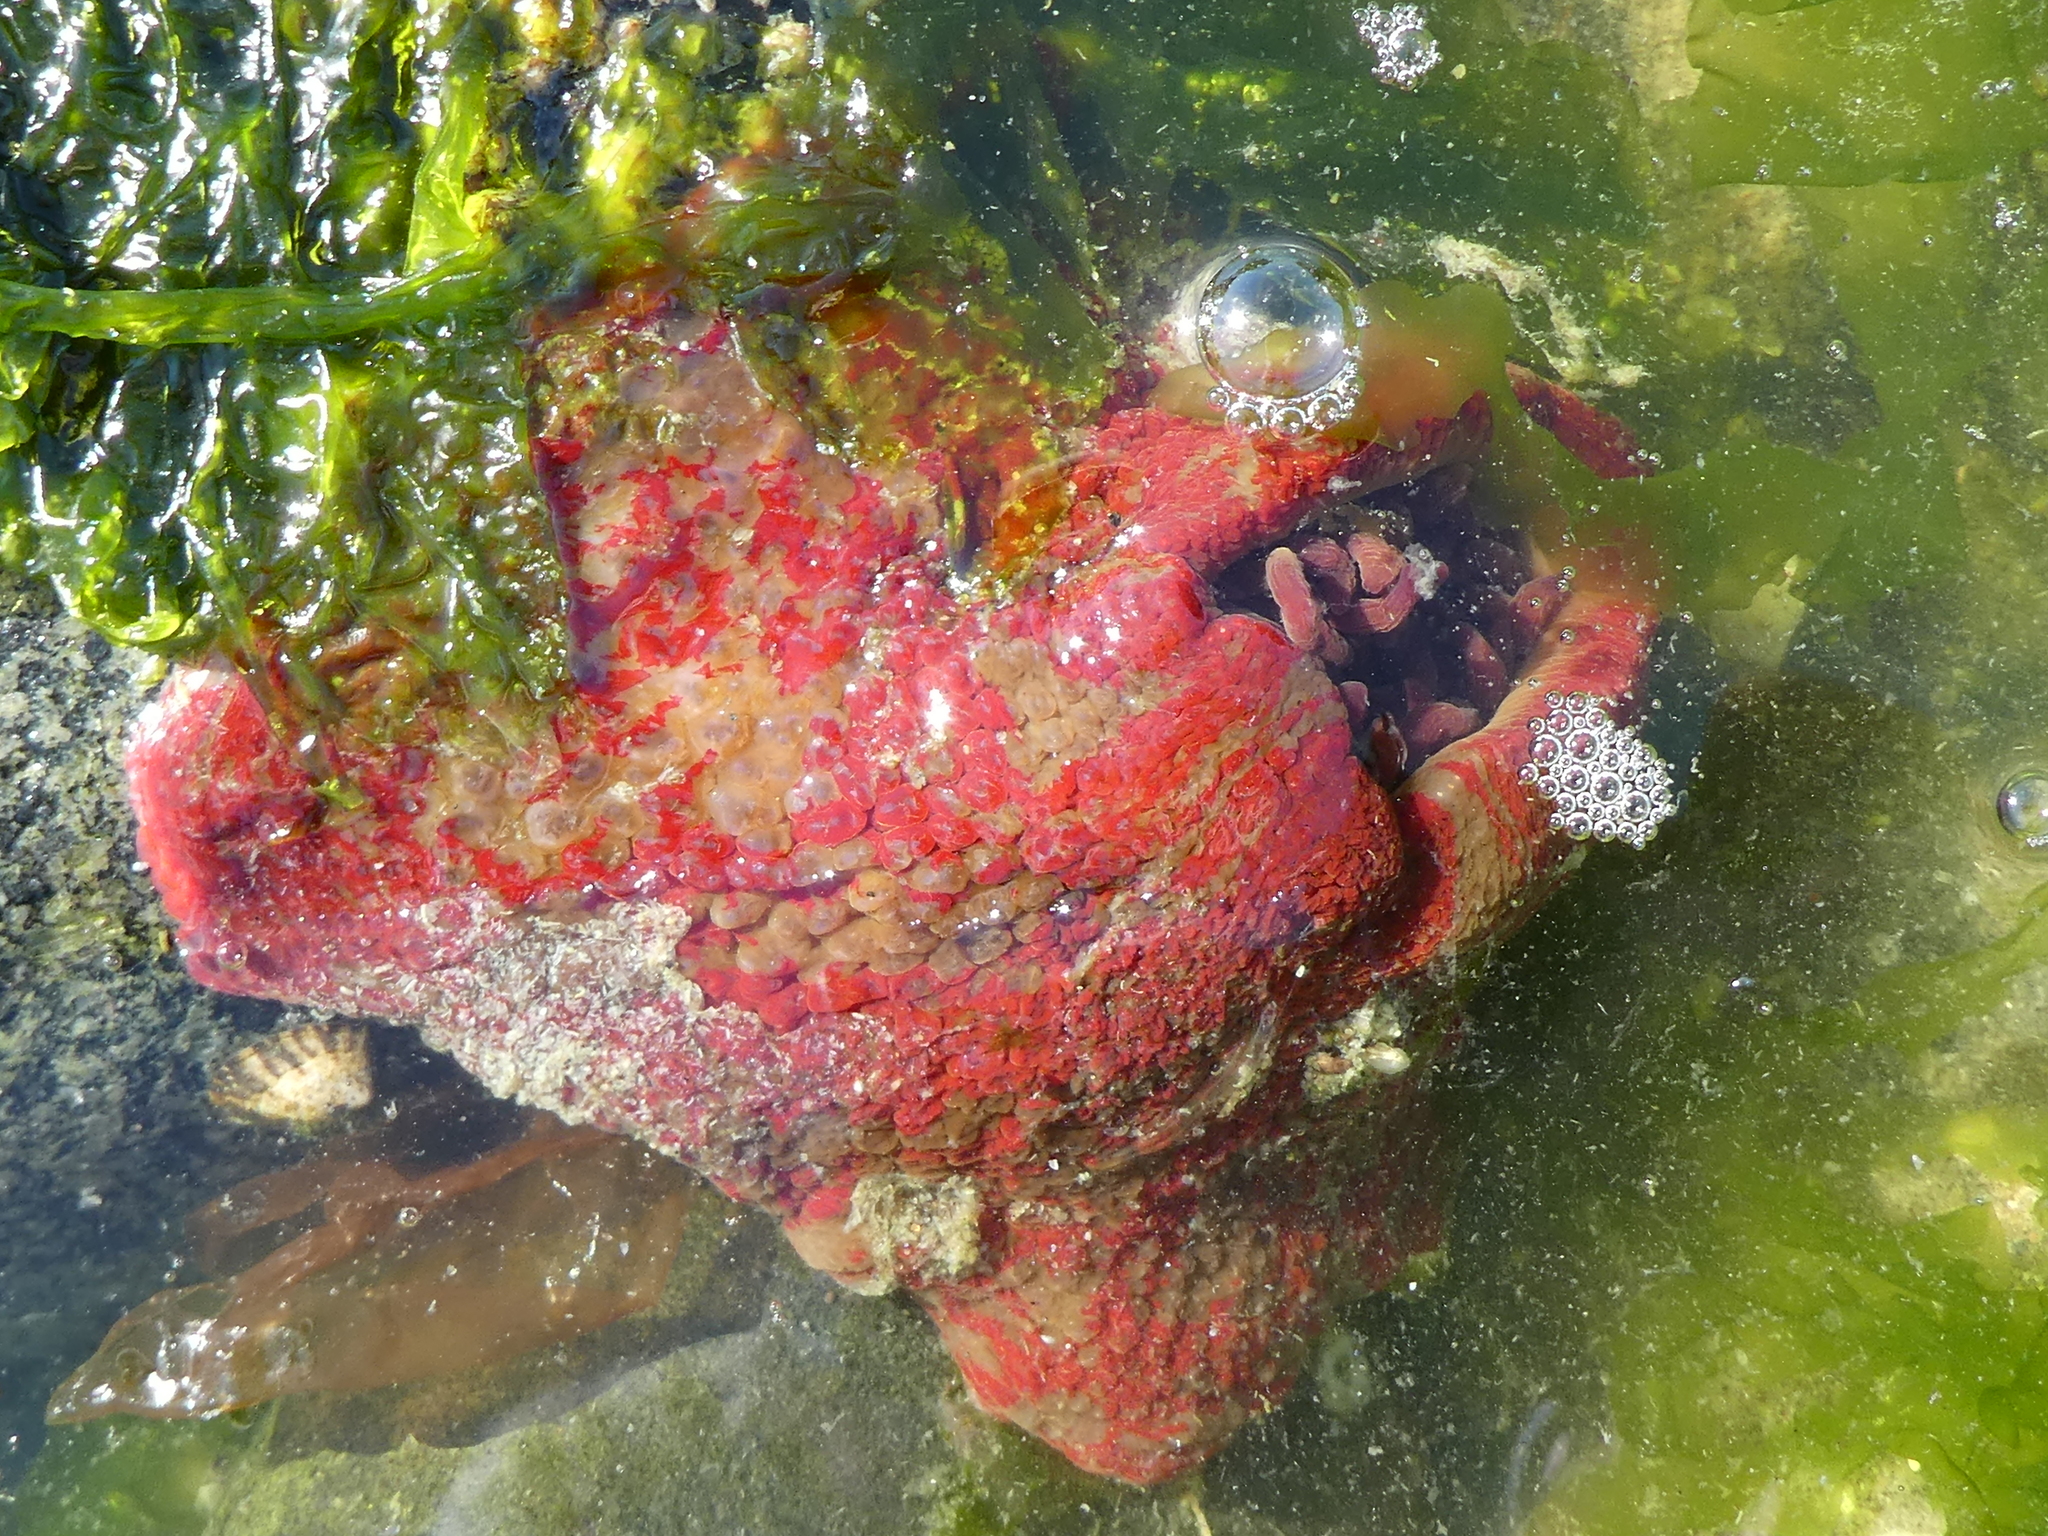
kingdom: Animalia
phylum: Cnidaria
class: Anthozoa
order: Actiniaria
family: Actiniidae
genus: Urticina
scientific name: Urticina grebelnyi
